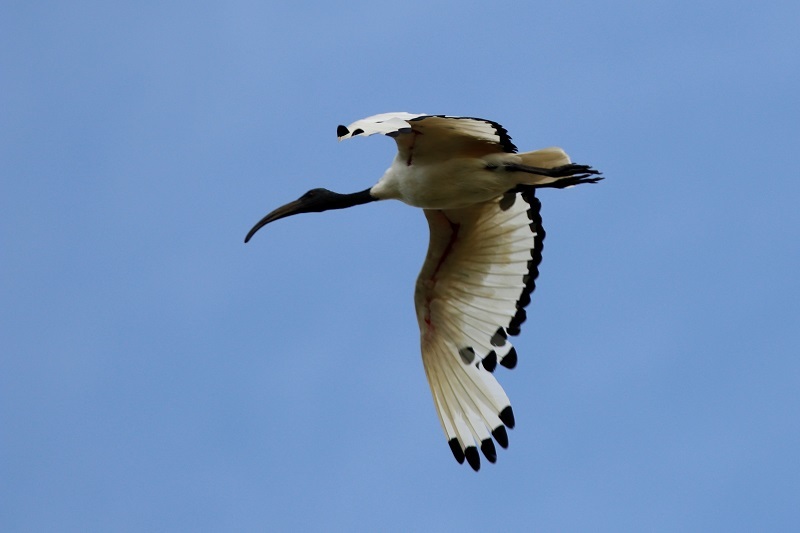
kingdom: Animalia
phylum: Chordata
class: Aves
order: Pelecaniformes
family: Threskiornithidae
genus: Threskiornis
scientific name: Threskiornis aethiopicus
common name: Sacred ibis
